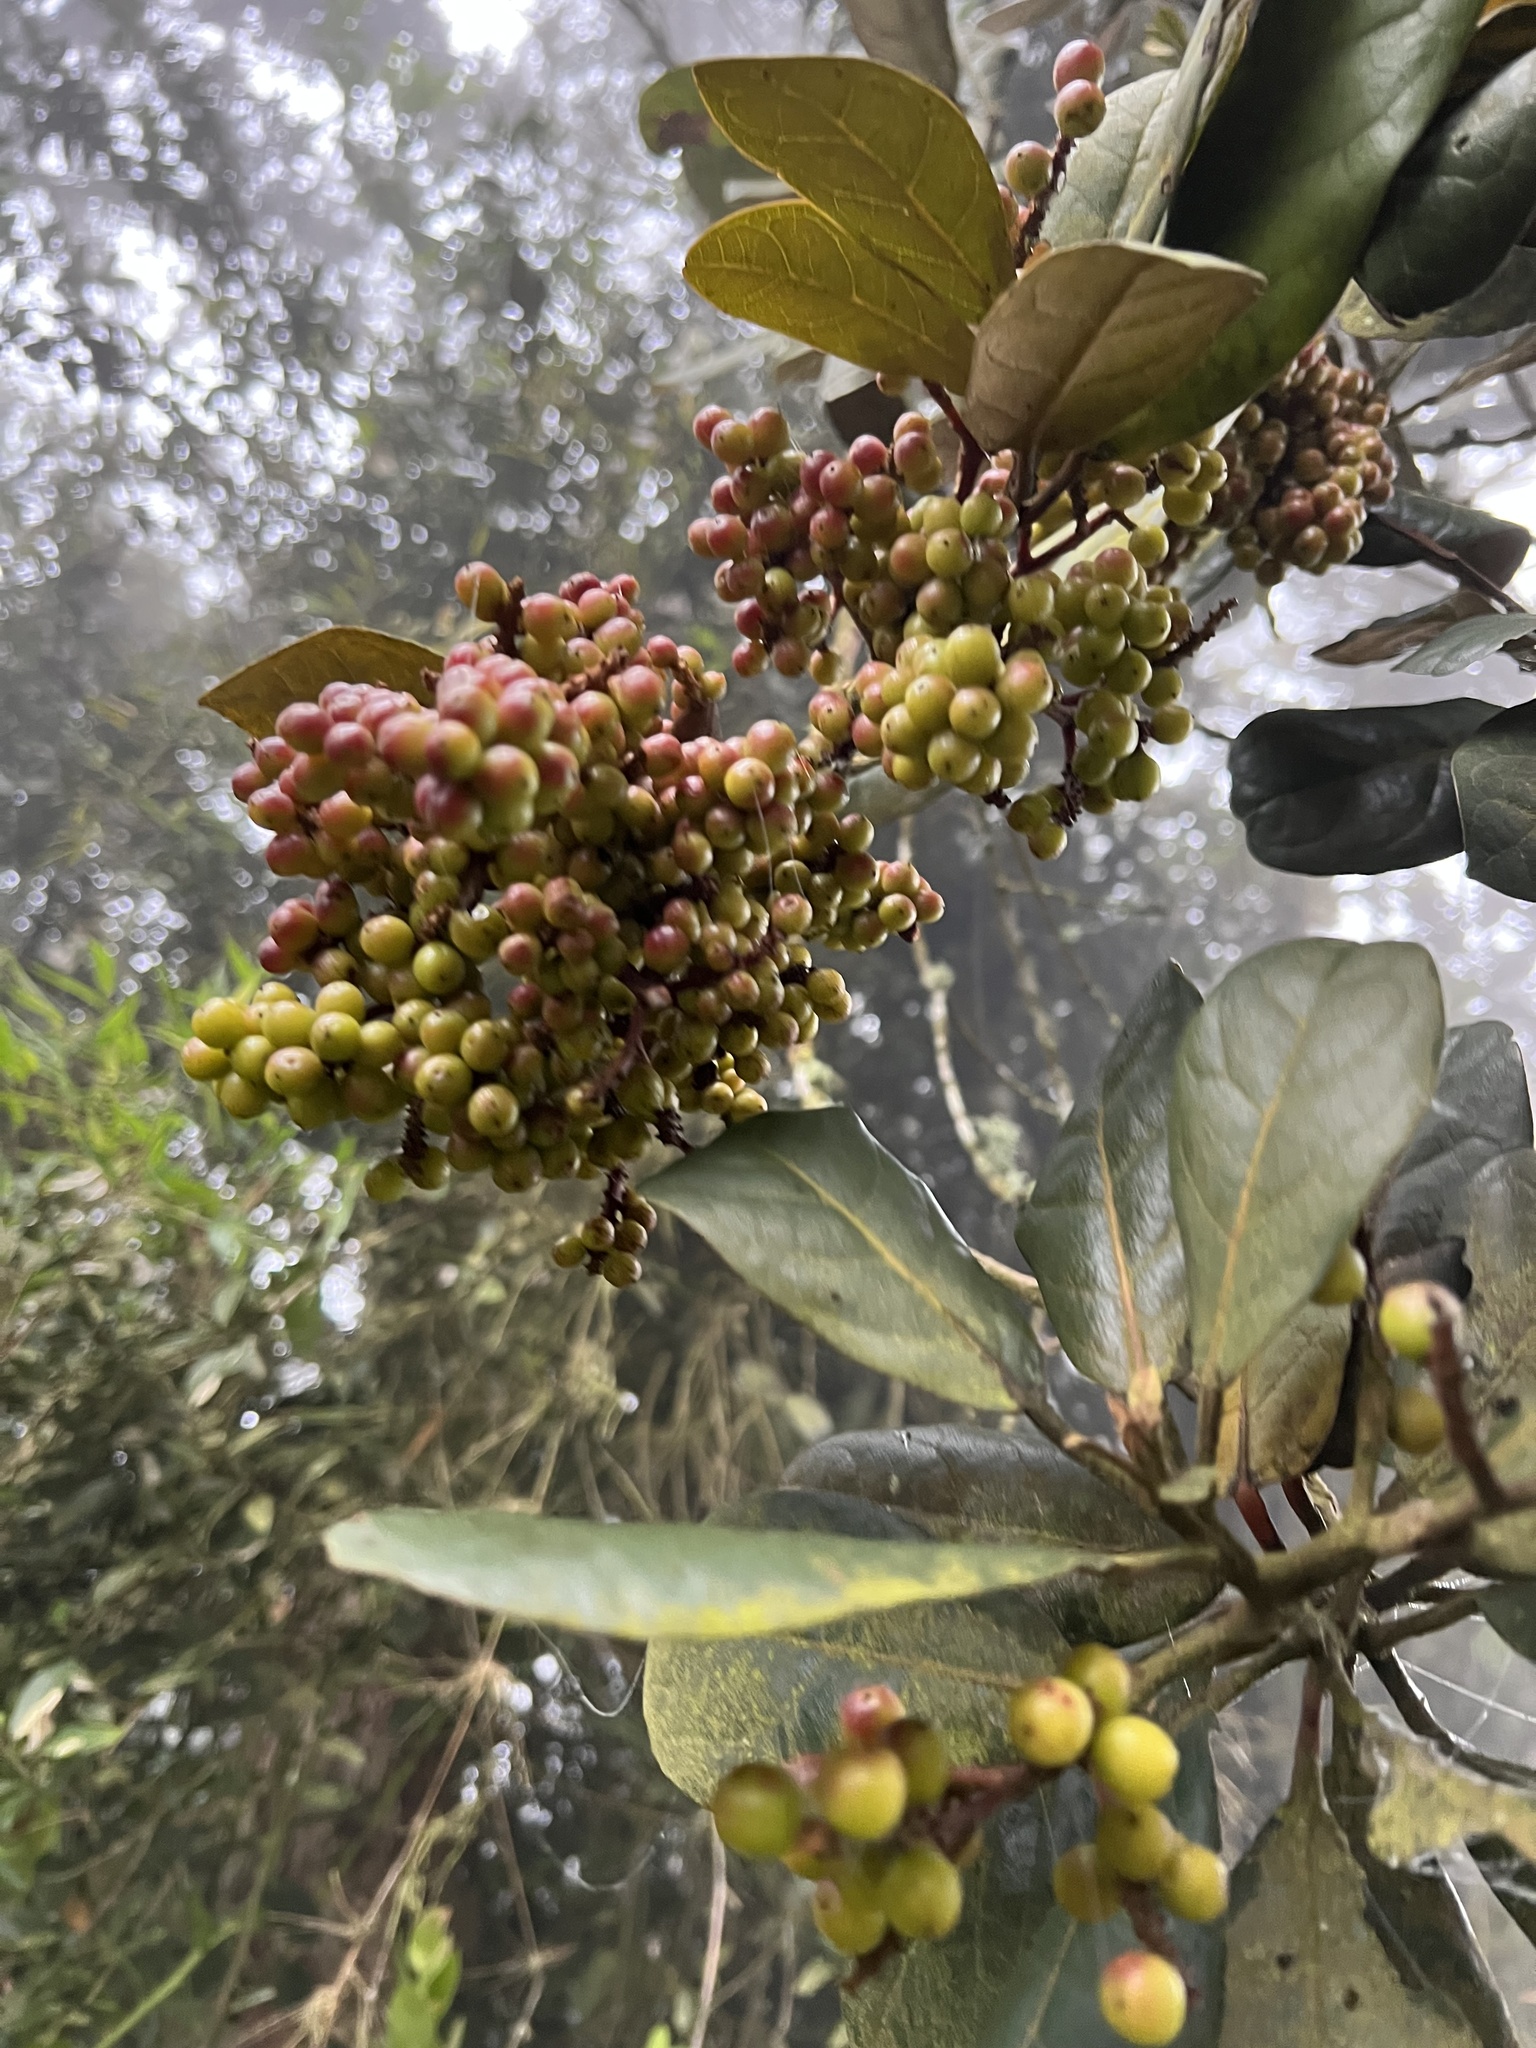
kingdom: Plantae
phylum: Tracheophyta
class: Magnoliopsida
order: Malpighiales
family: Phyllanthaceae
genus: Hieronyma
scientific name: Hieronyma rufa
